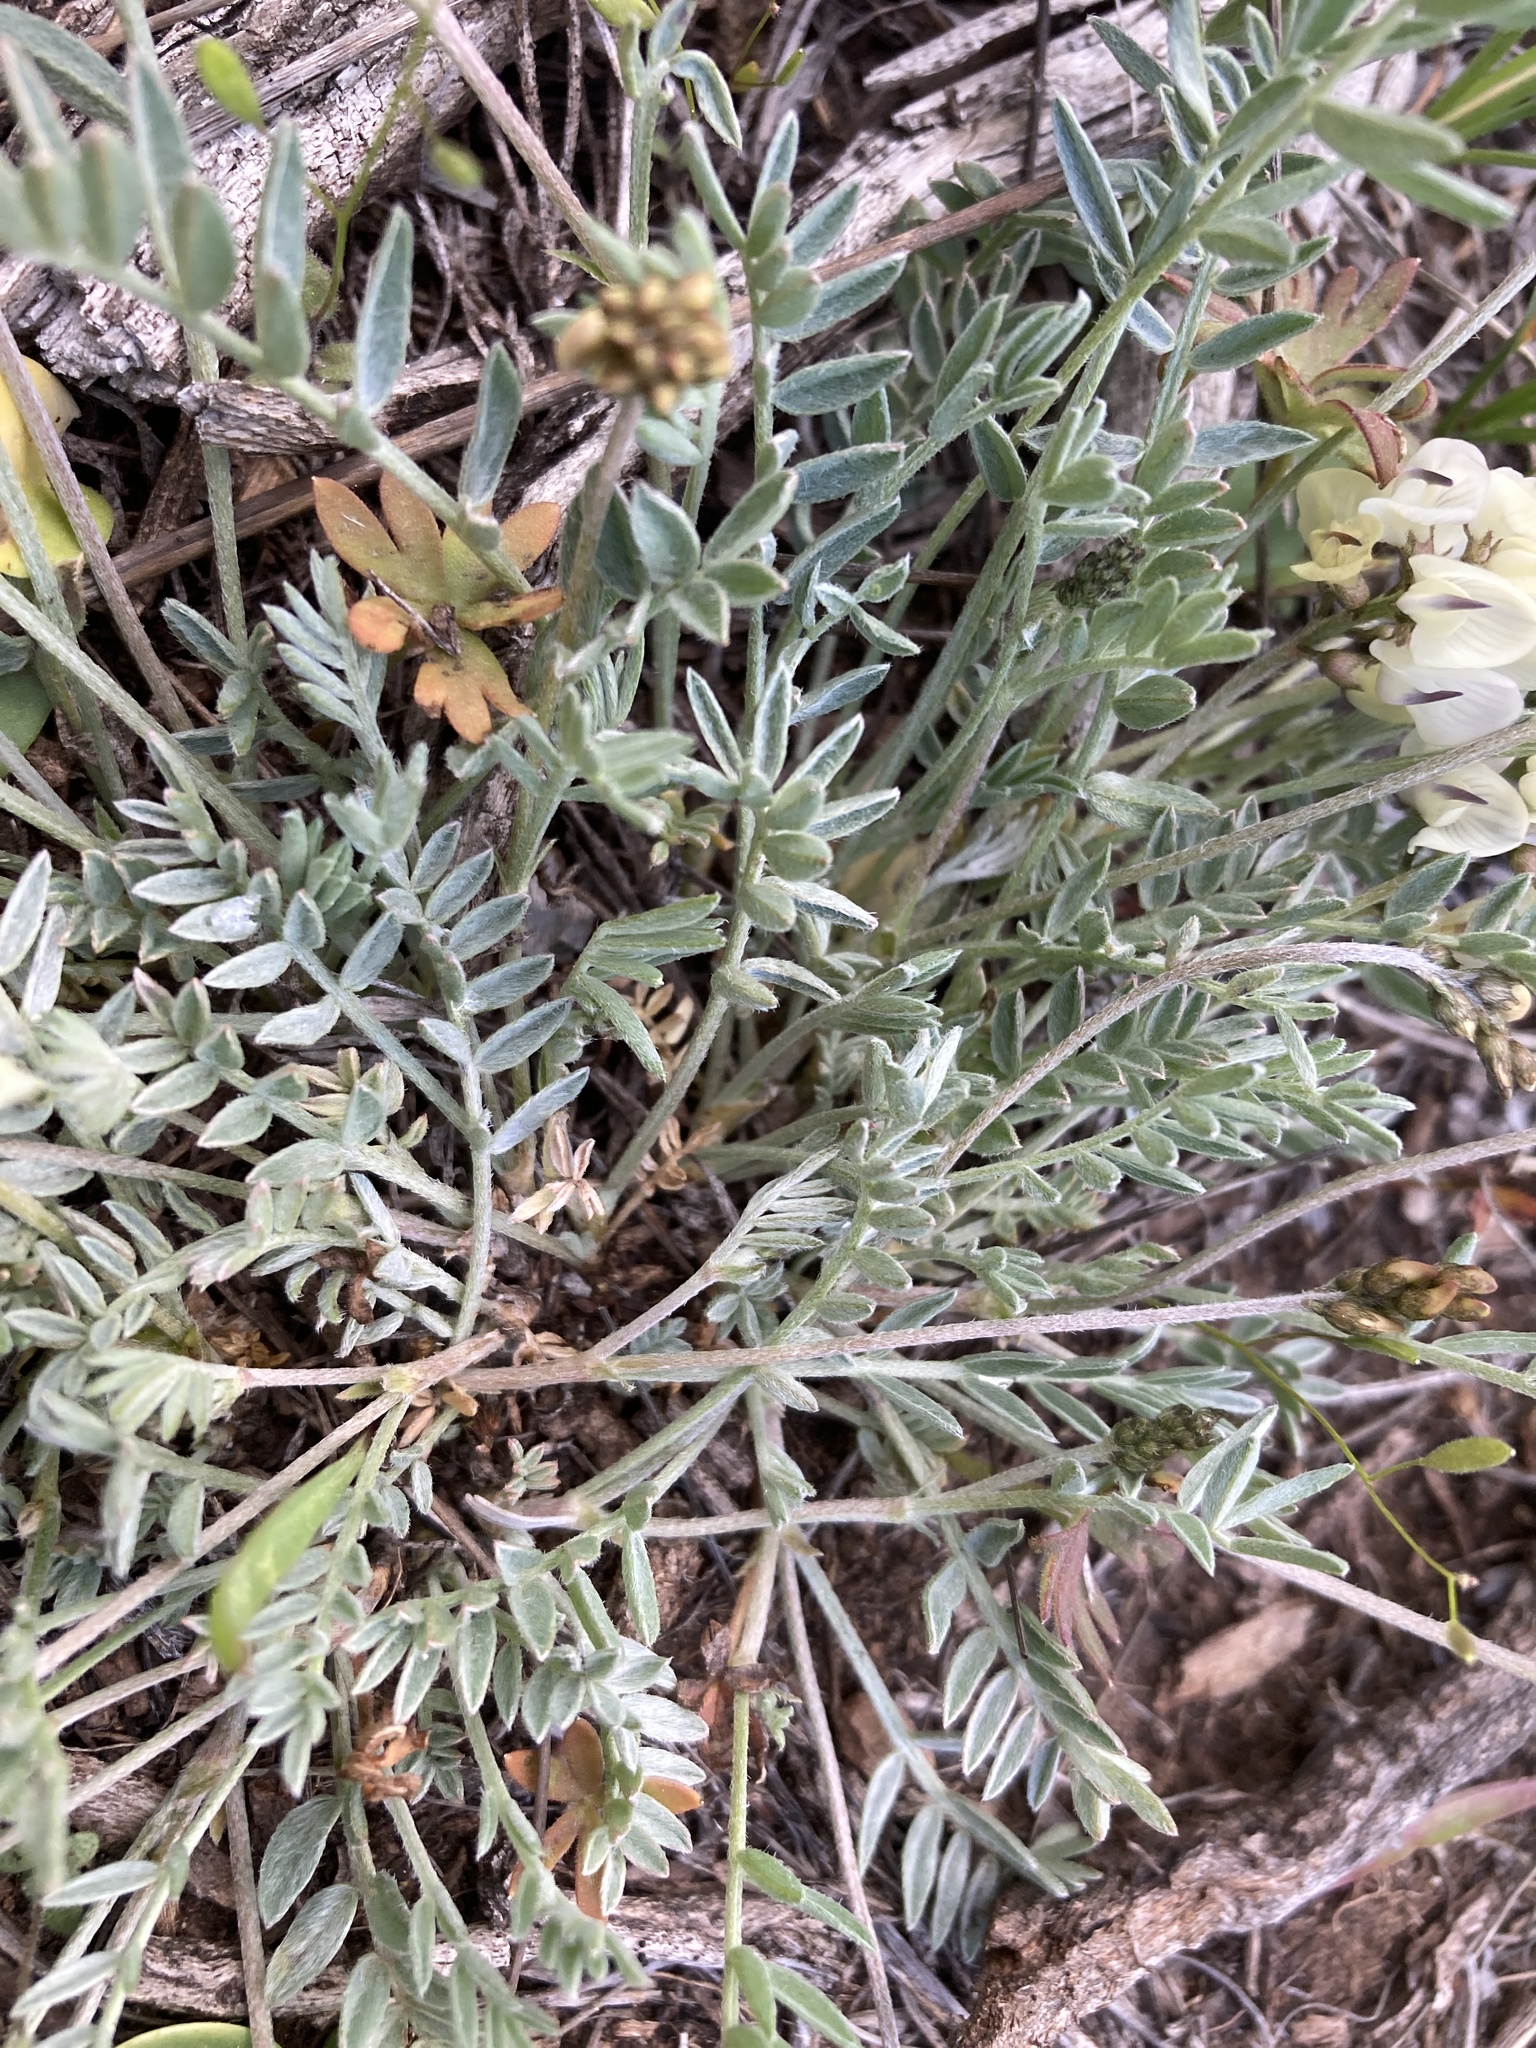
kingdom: Plantae
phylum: Tracheophyta
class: Magnoliopsida
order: Fabales
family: Fabaceae
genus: Astragalus
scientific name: Astragalus miser
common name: Timber milkvetch
